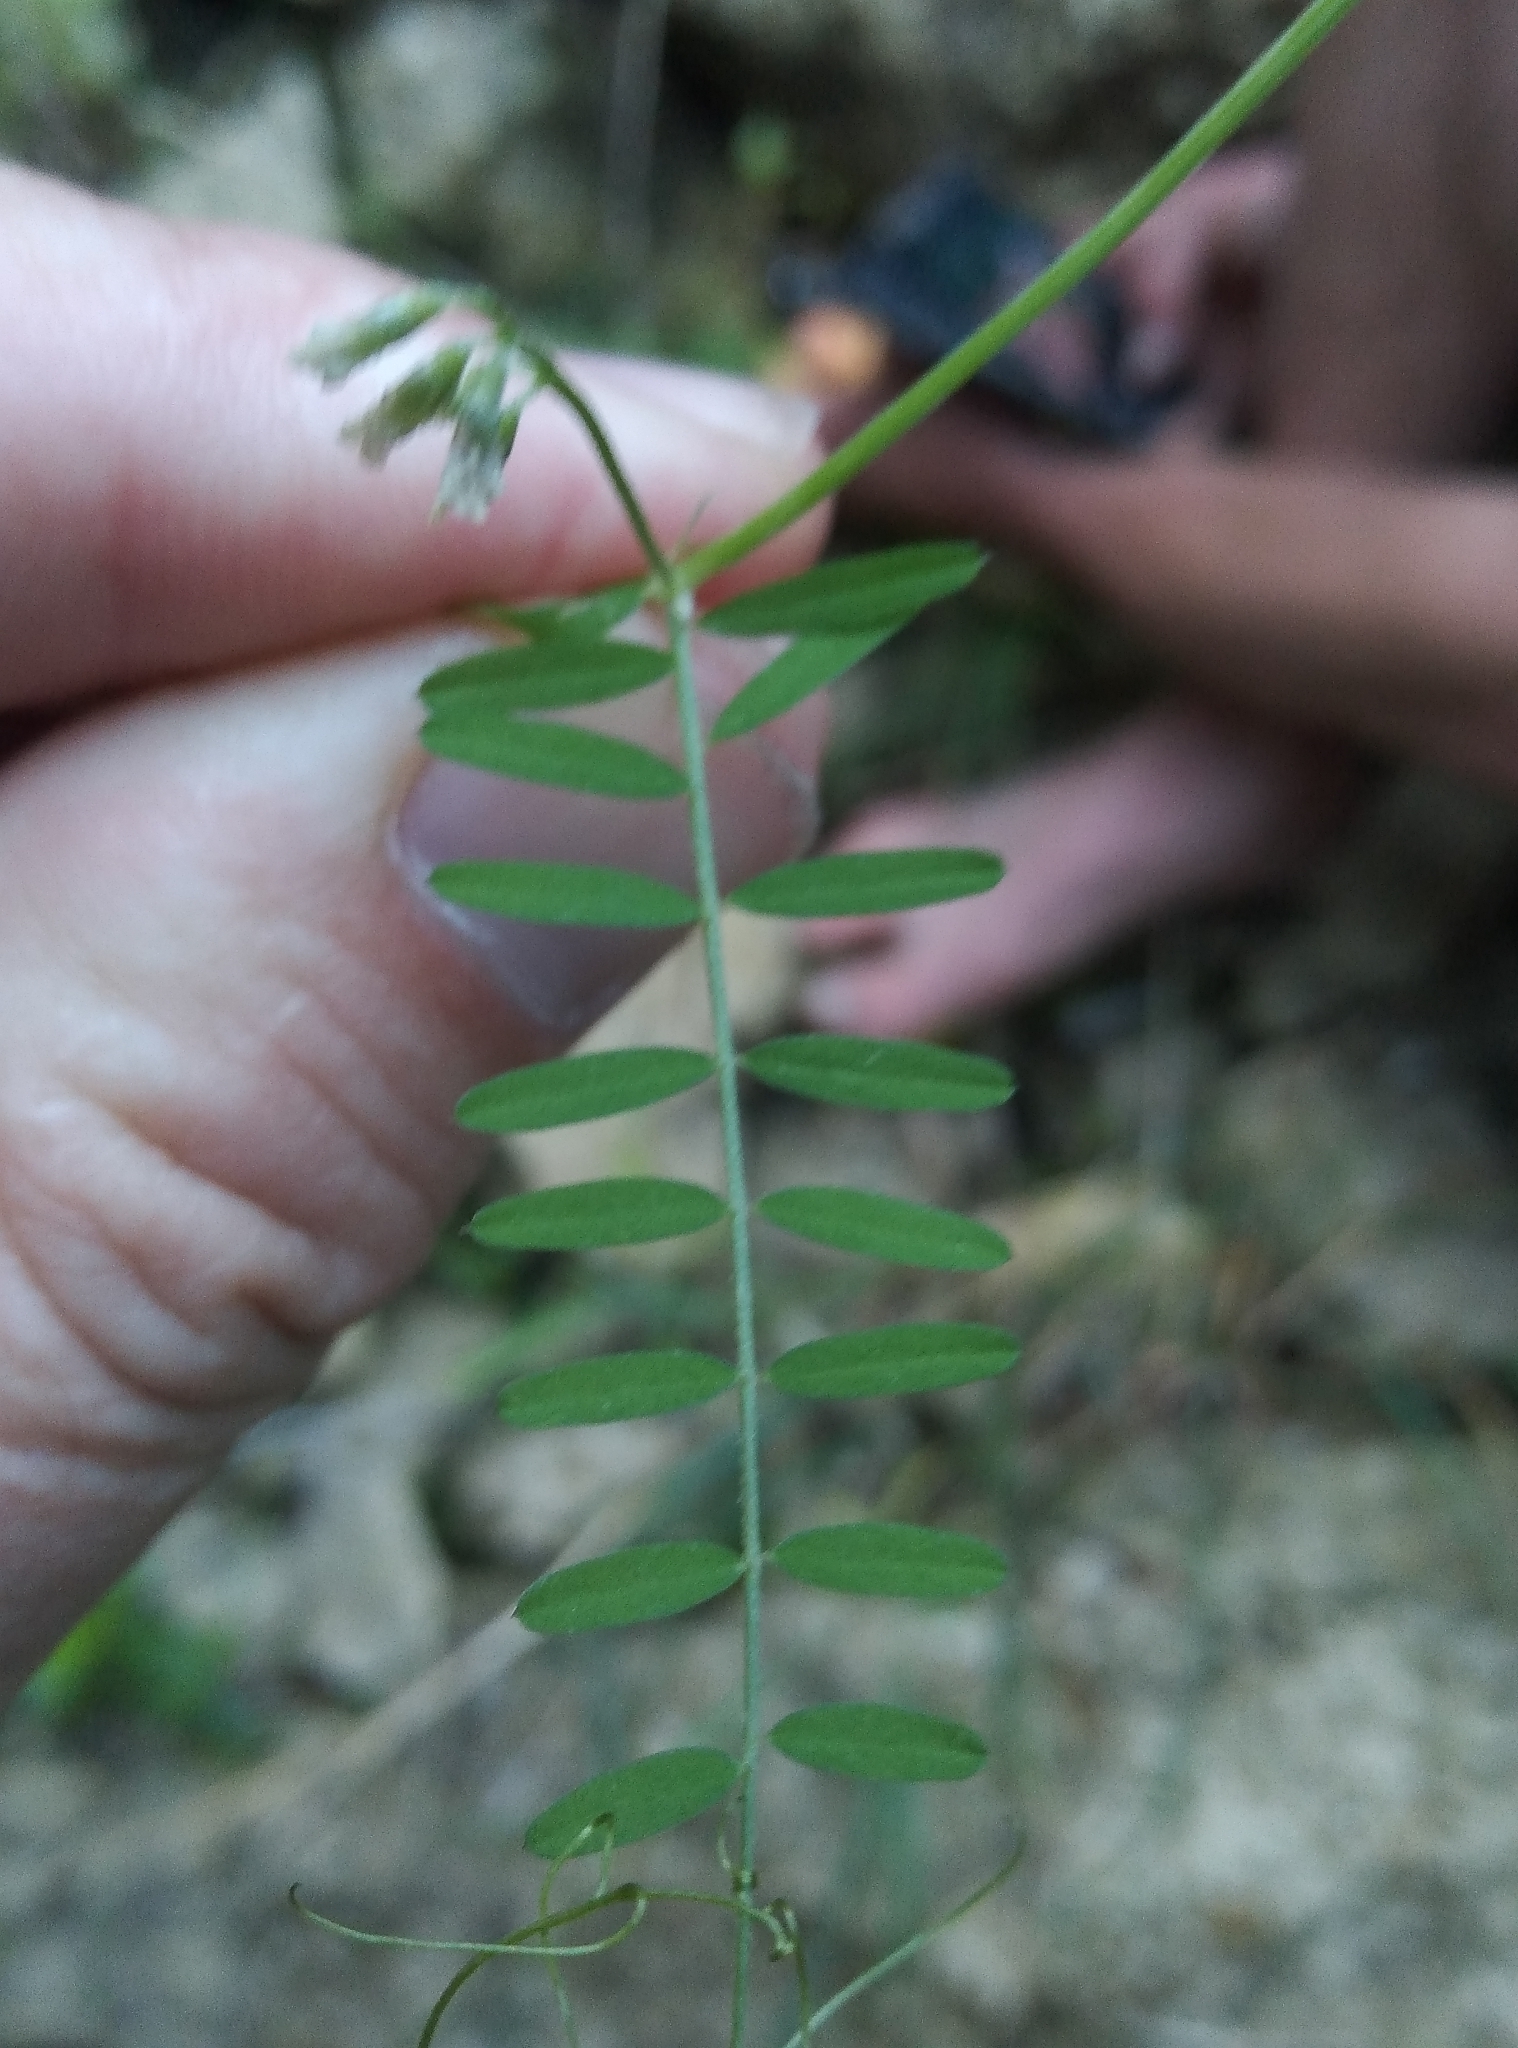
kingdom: Plantae
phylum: Tracheophyta
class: Magnoliopsida
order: Fabales
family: Fabaceae
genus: Vicia
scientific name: Vicia hirsuta
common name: Tiny vetch
